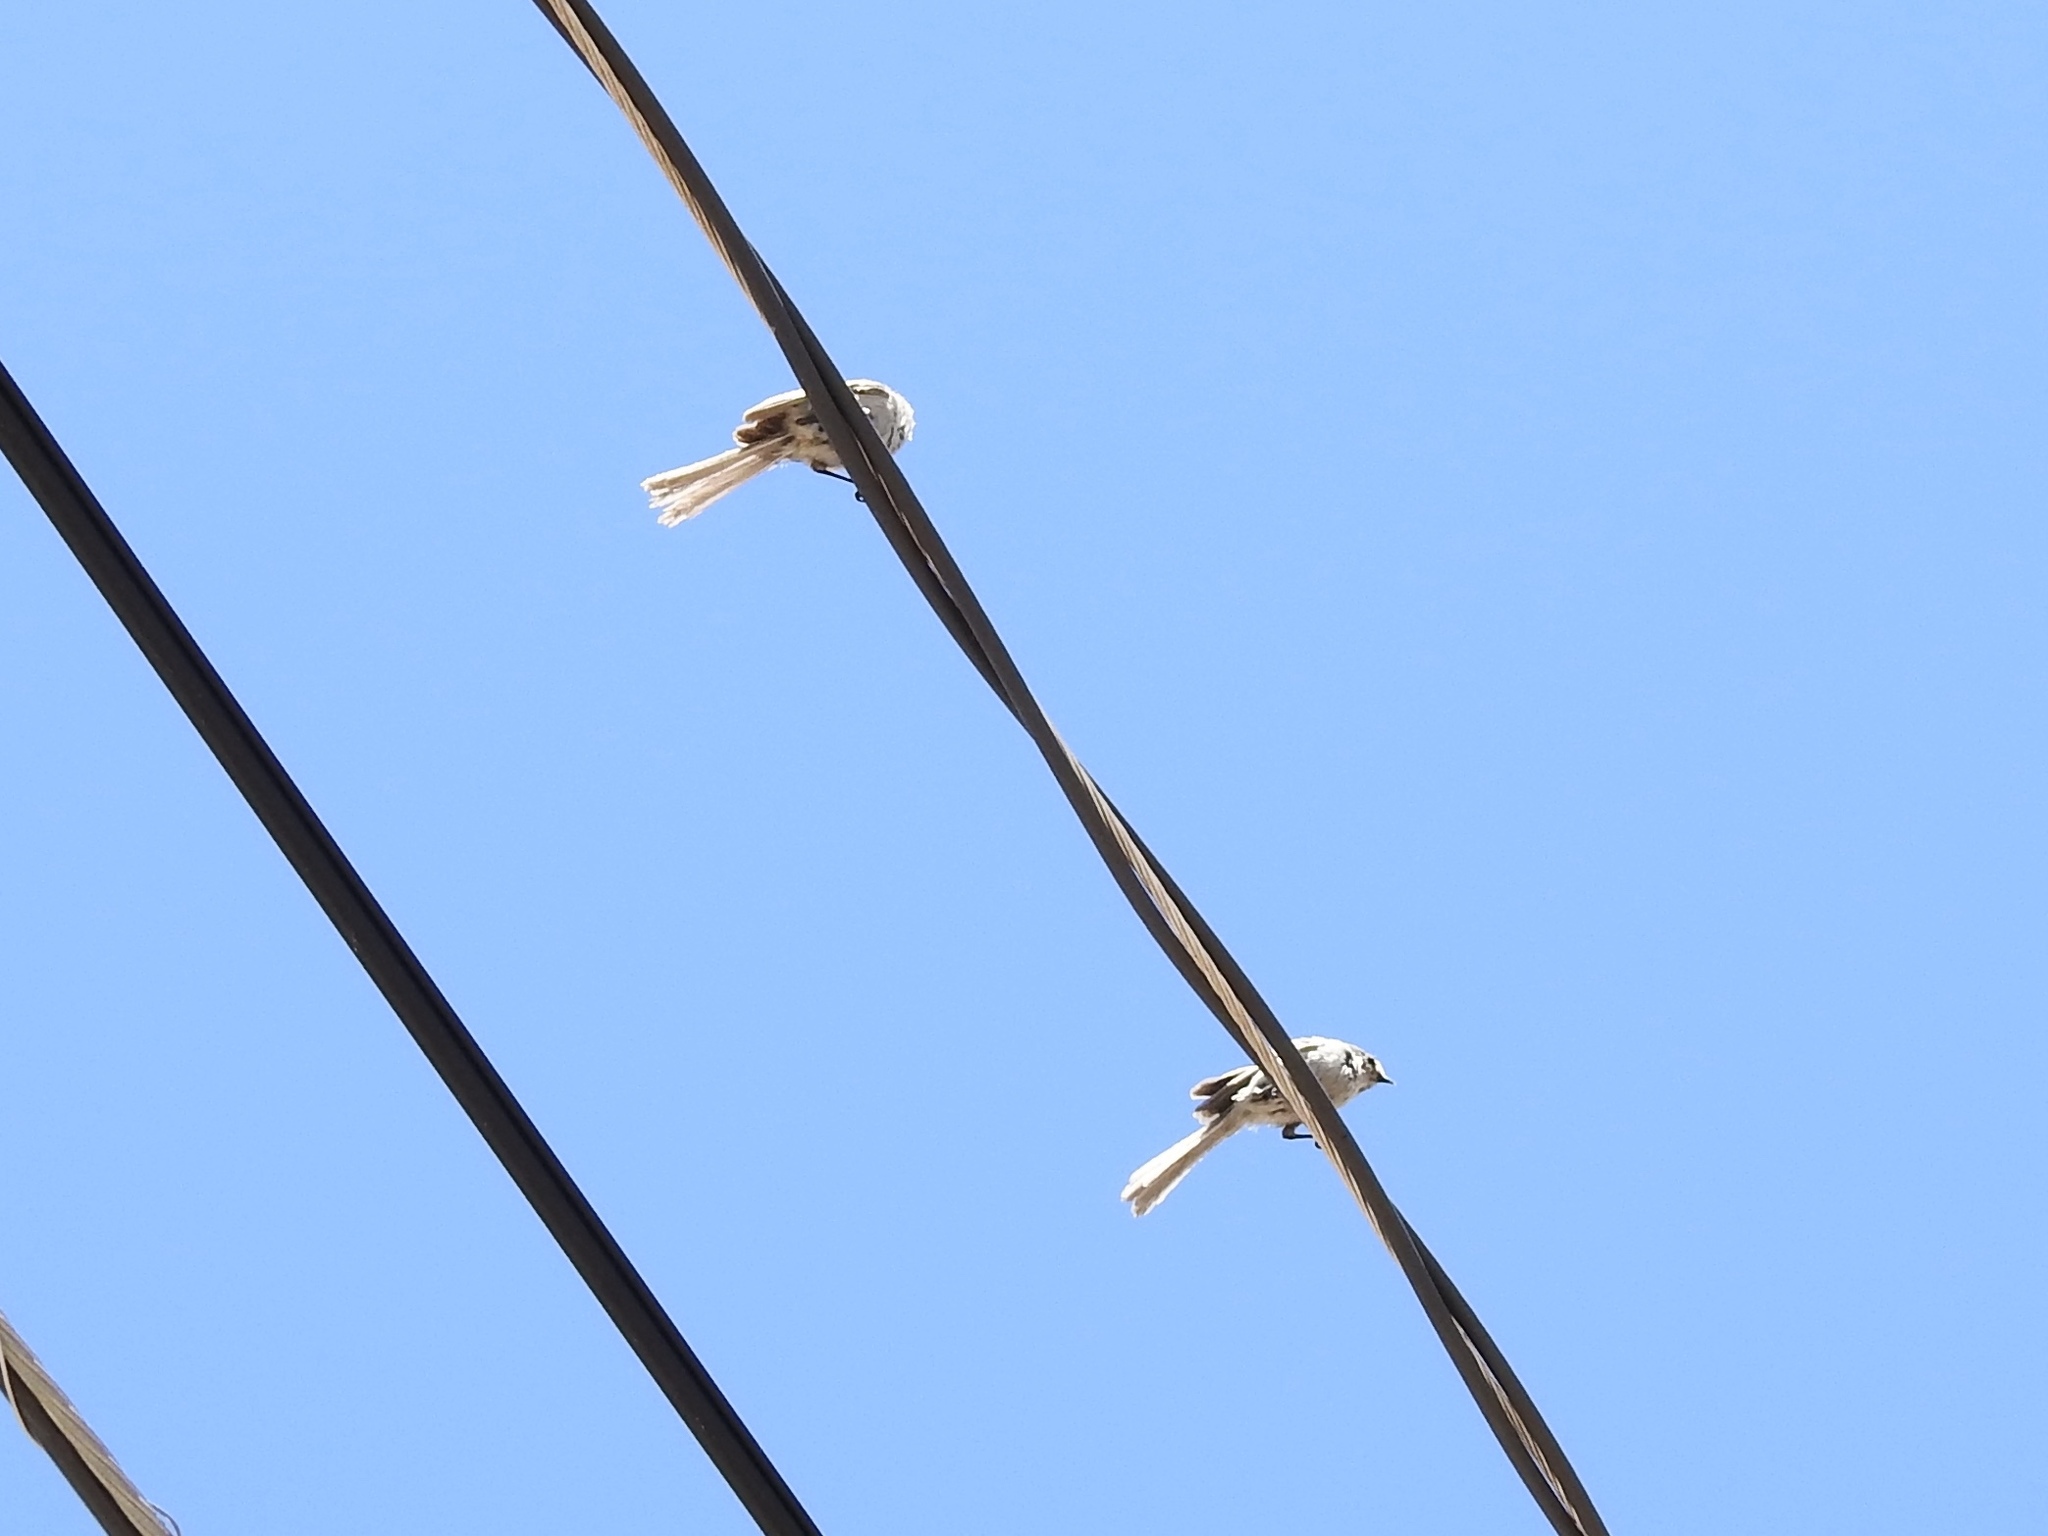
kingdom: Animalia
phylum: Chordata
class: Aves
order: Passeriformes
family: Aegithalidae
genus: Psaltriparus
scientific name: Psaltriparus minimus
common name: American bushtit
